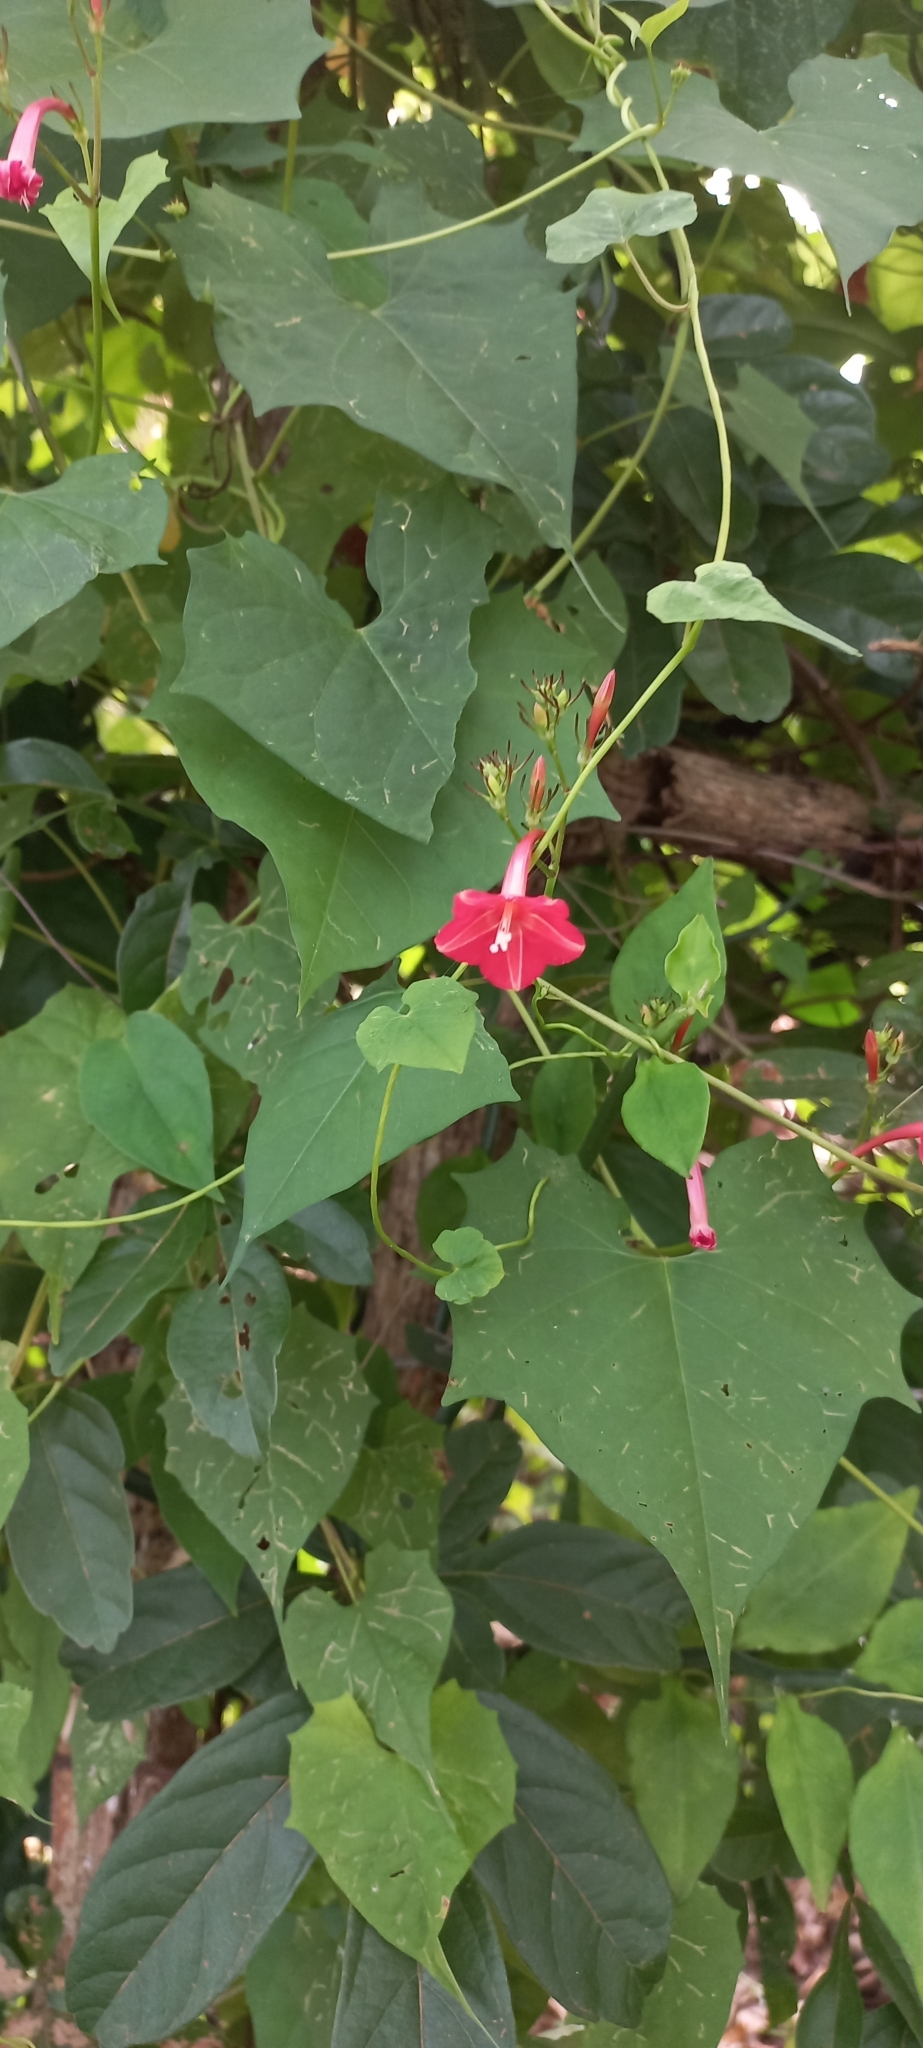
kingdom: Plantae
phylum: Tracheophyta
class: Magnoliopsida
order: Solanales
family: Convolvulaceae
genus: Ipomoea
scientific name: Ipomoea hederifolia
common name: Ivy-leaf morning-glory
